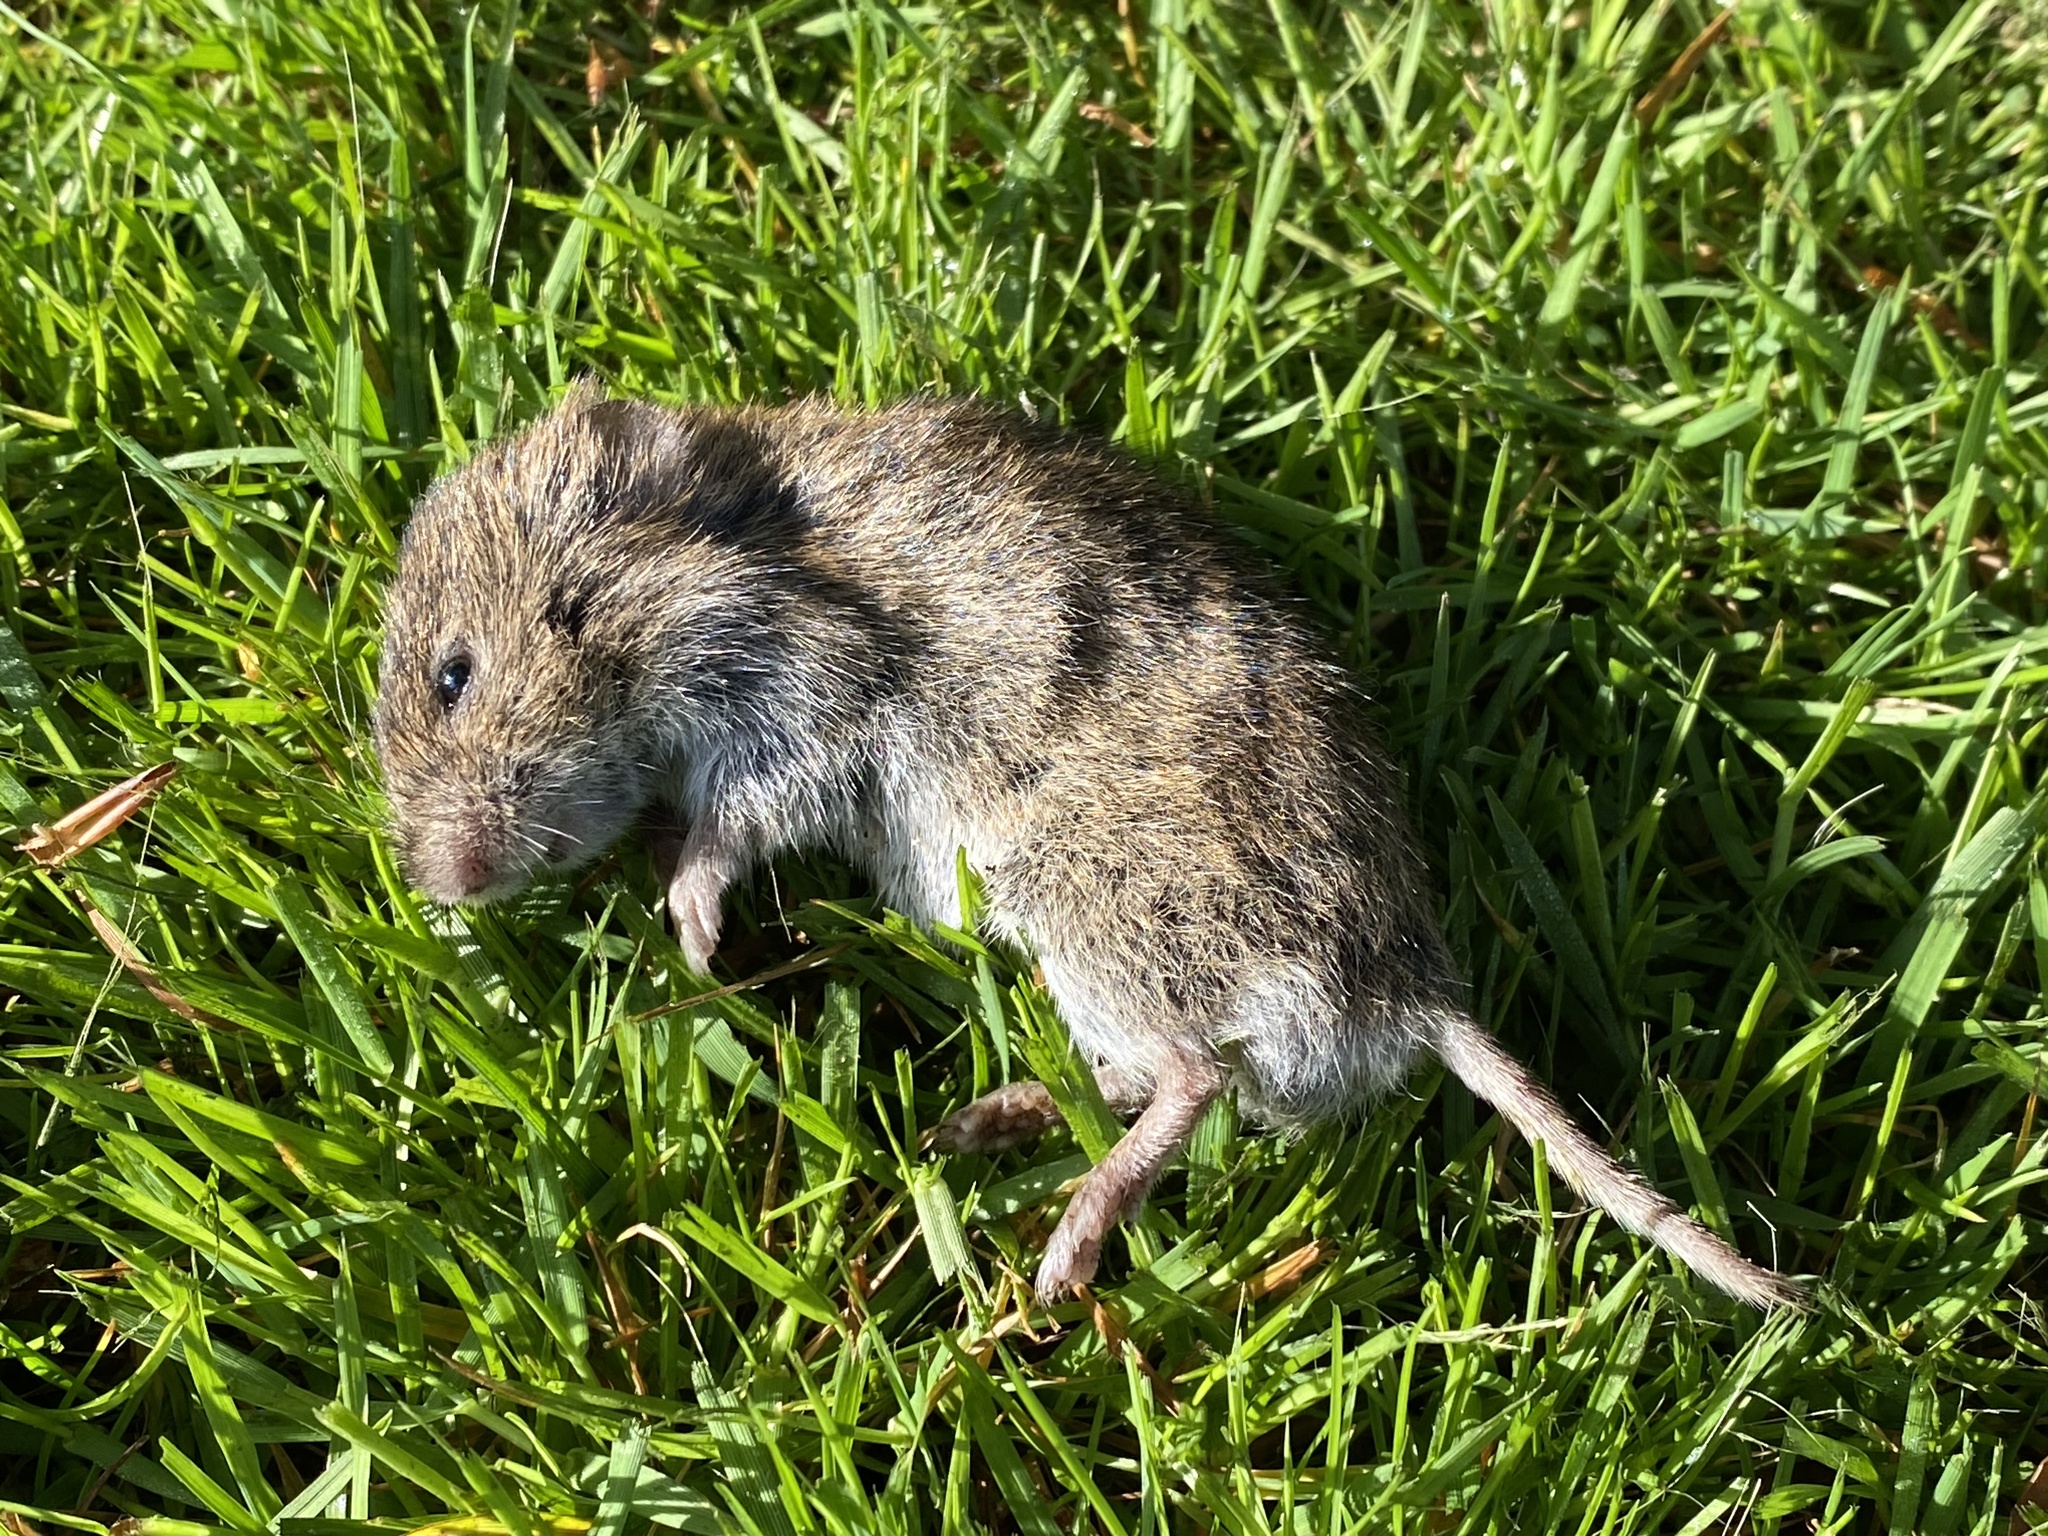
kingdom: Animalia
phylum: Chordata
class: Mammalia
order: Rodentia
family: Cricetidae
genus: Microtus
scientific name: Microtus agrestis
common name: Field vole
